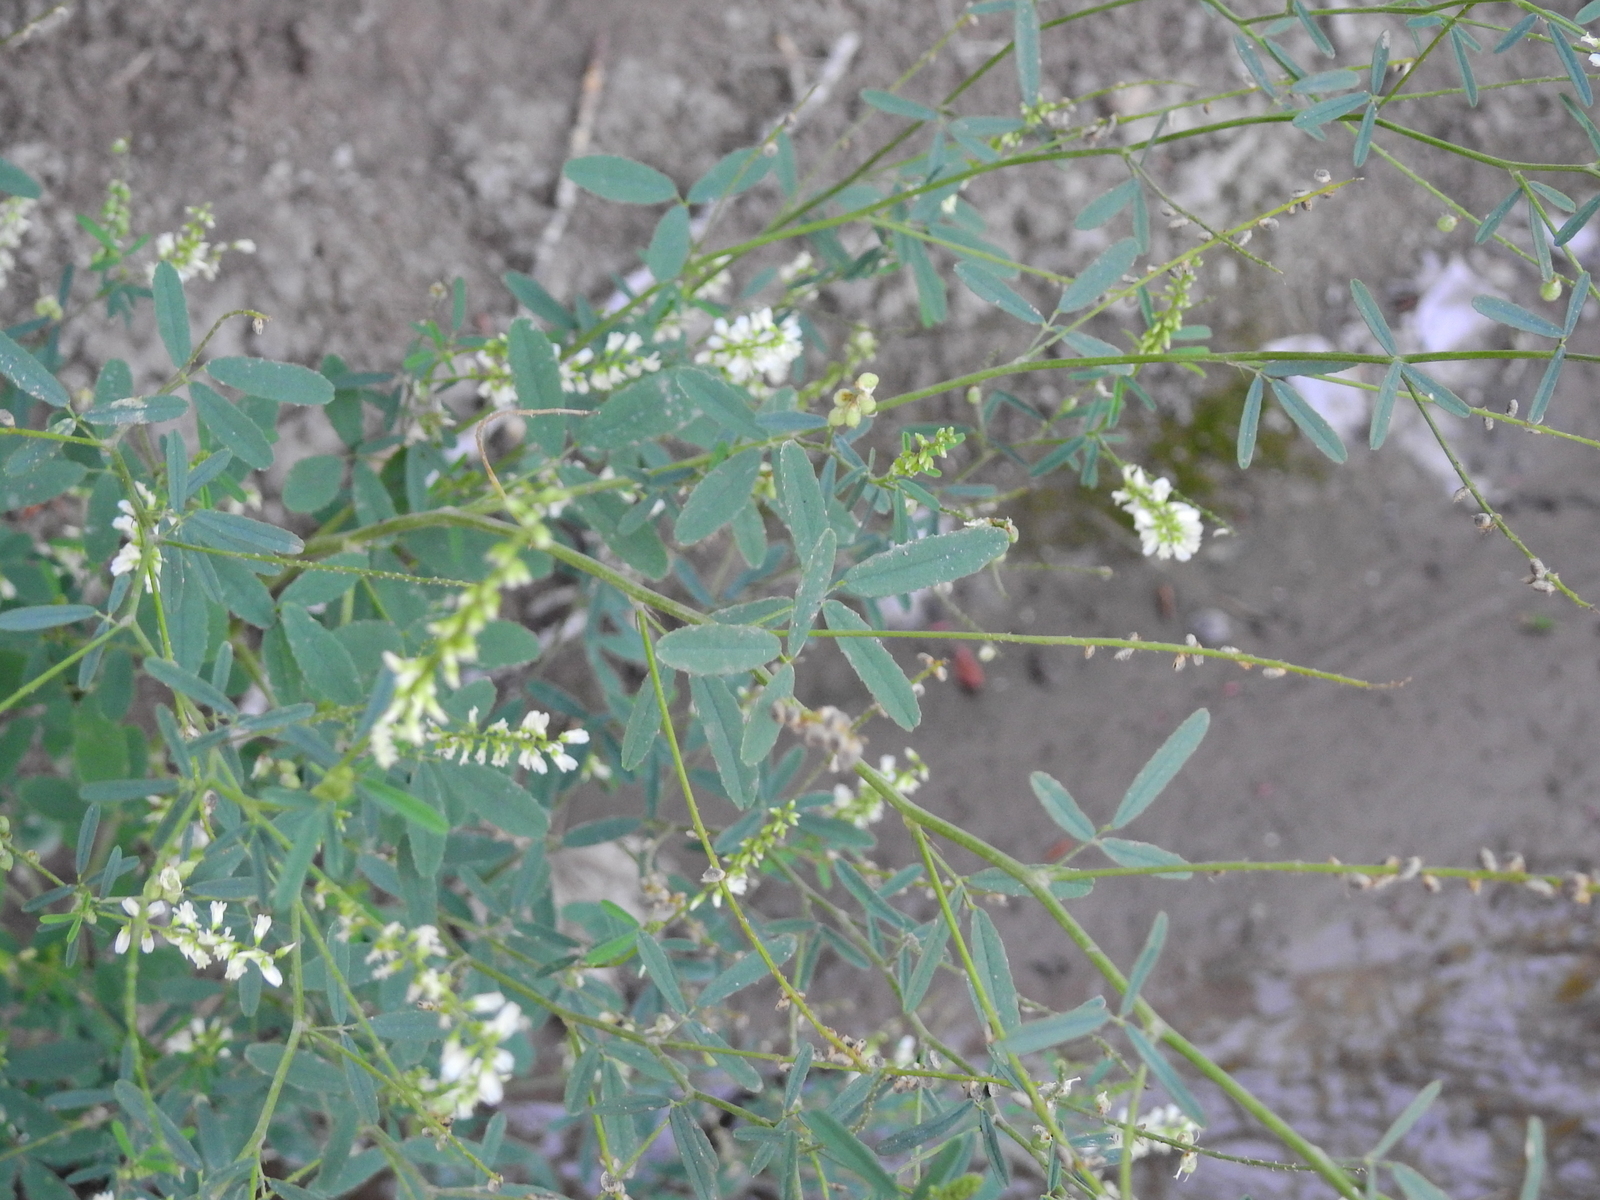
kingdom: Plantae
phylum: Tracheophyta
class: Magnoliopsida
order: Fabales
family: Fabaceae
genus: Melilotus
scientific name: Melilotus albus
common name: White melilot
